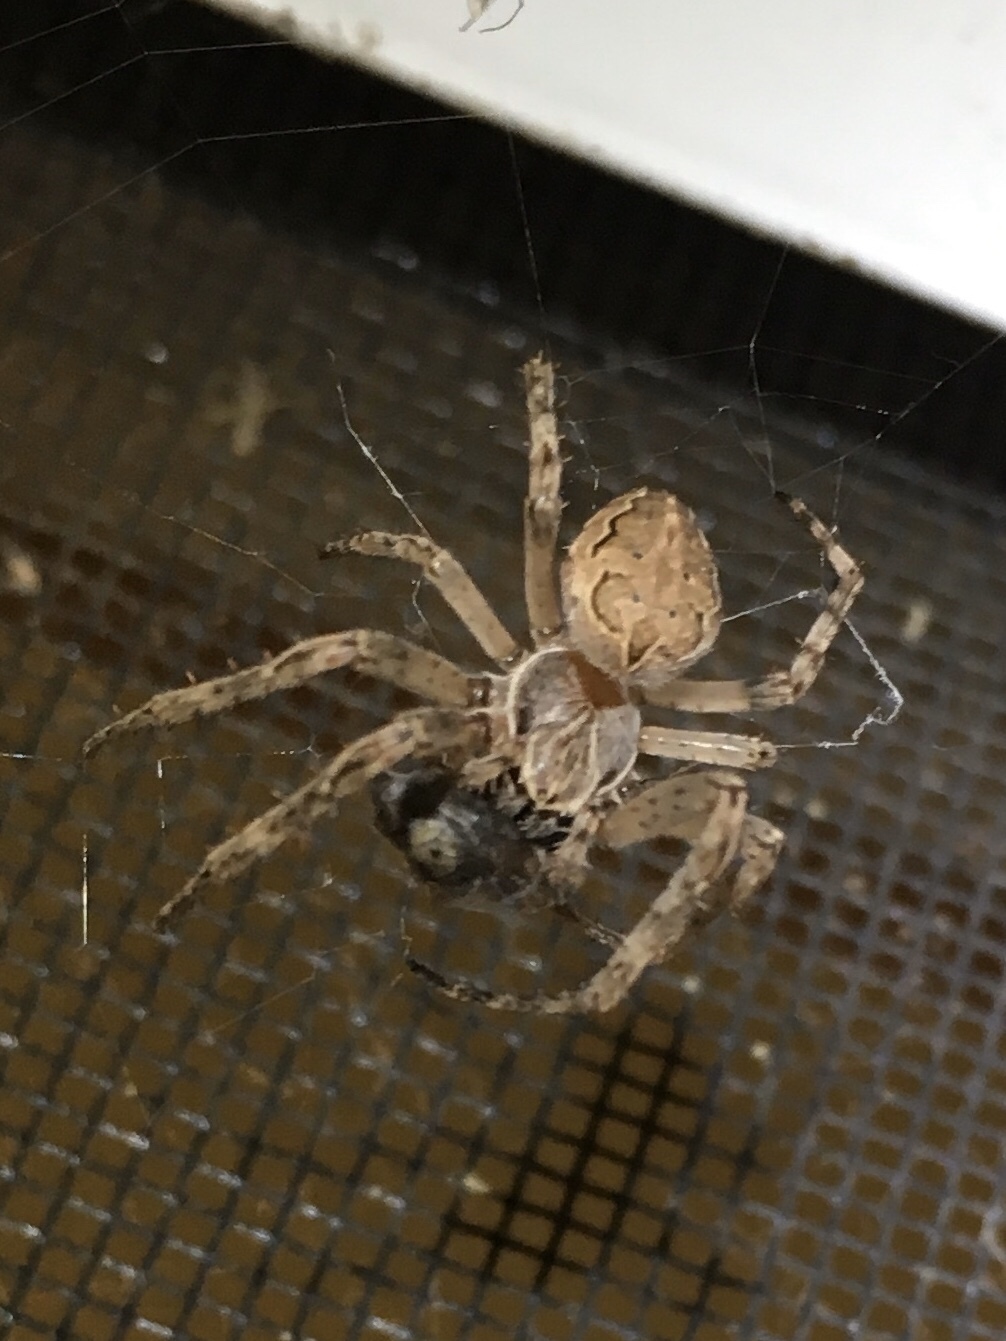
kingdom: Animalia
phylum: Arthropoda
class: Arachnida
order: Araneae
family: Araneidae
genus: Larinioides
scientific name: Larinioides sclopetarius
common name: Bridge orbweaver
